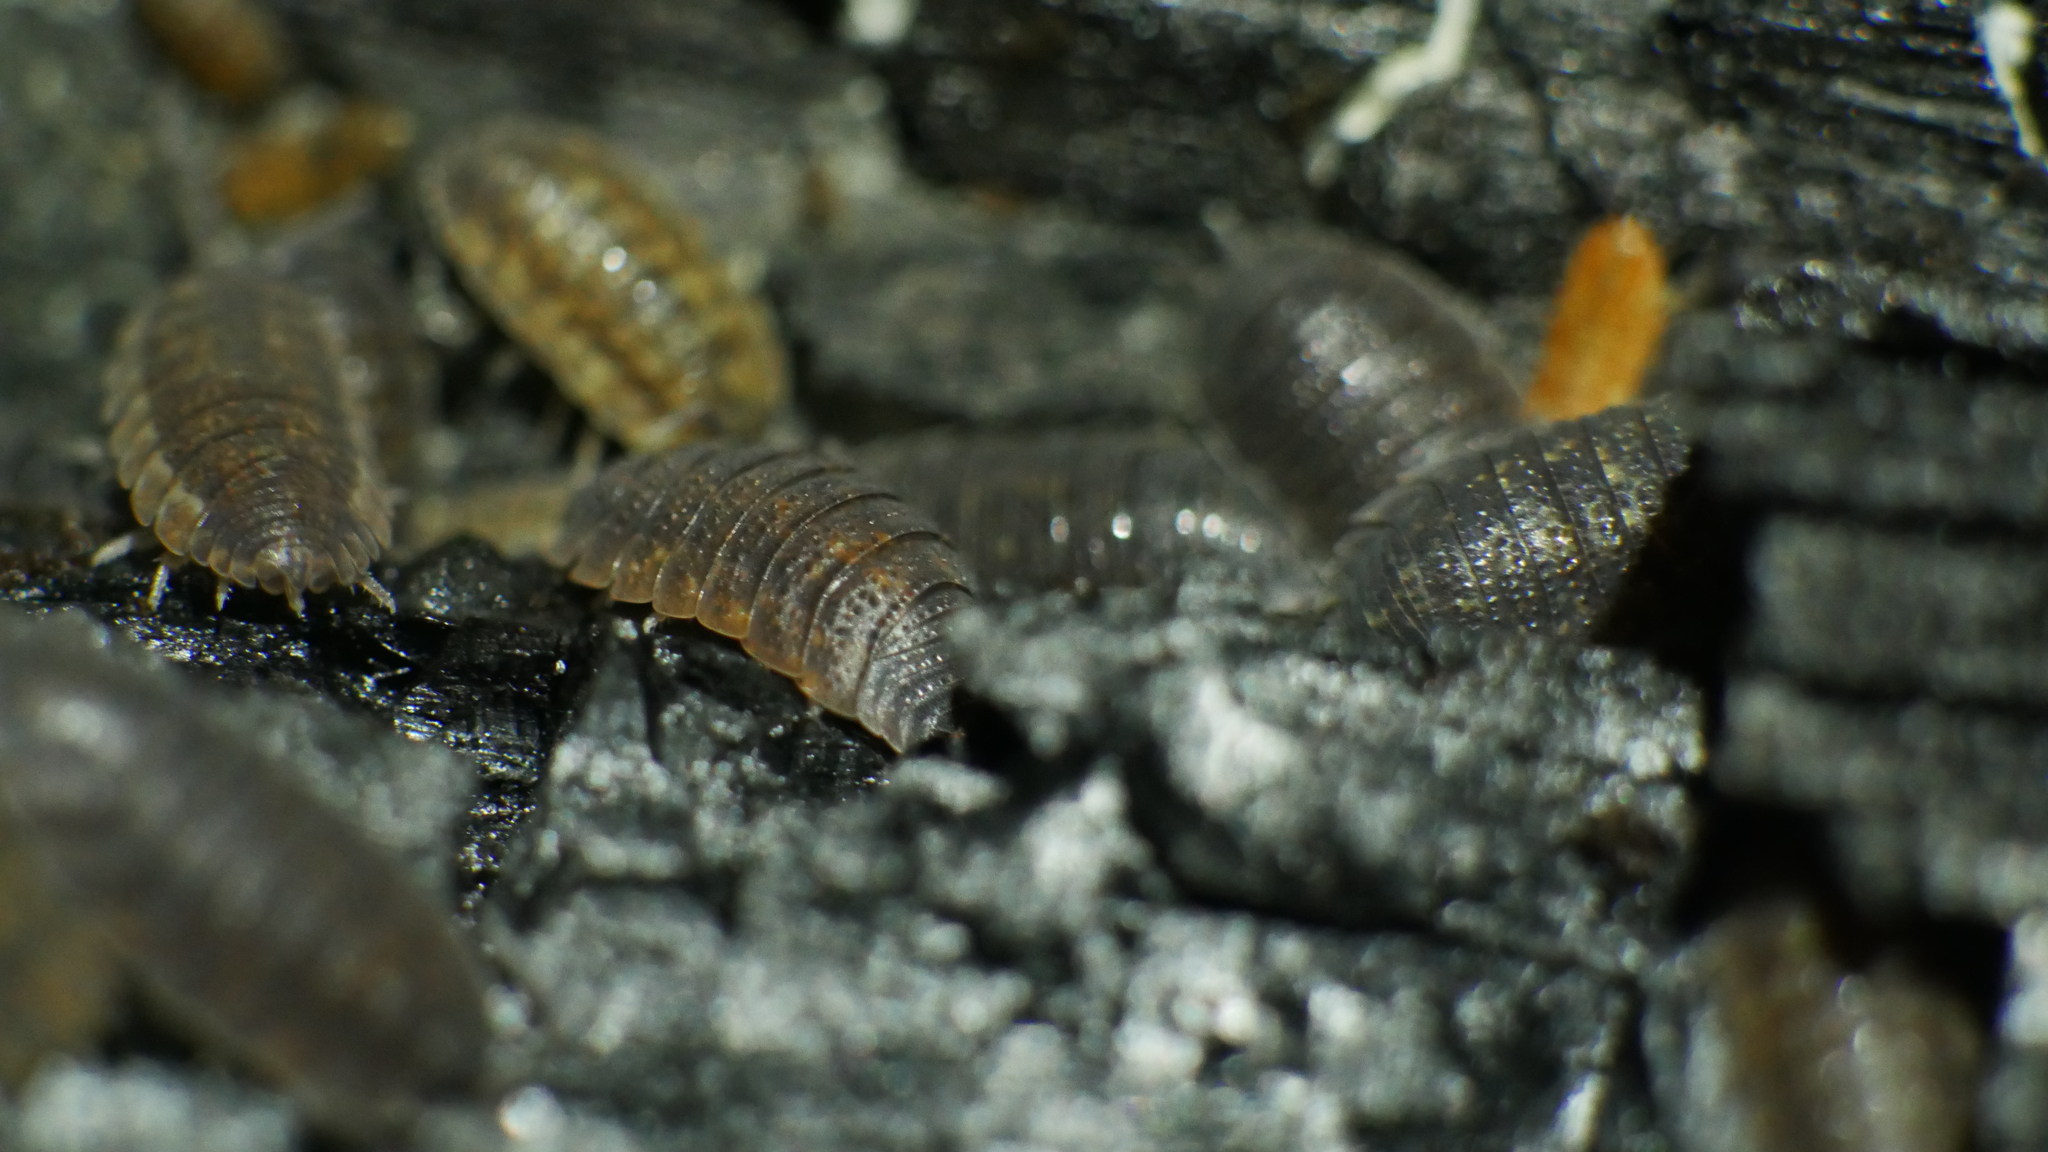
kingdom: Animalia
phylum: Arthropoda
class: Malacostraca
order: Isopoda
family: Porcellionidae
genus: Porcellio
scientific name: Porcellio scaber
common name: Common rough woodlouse
